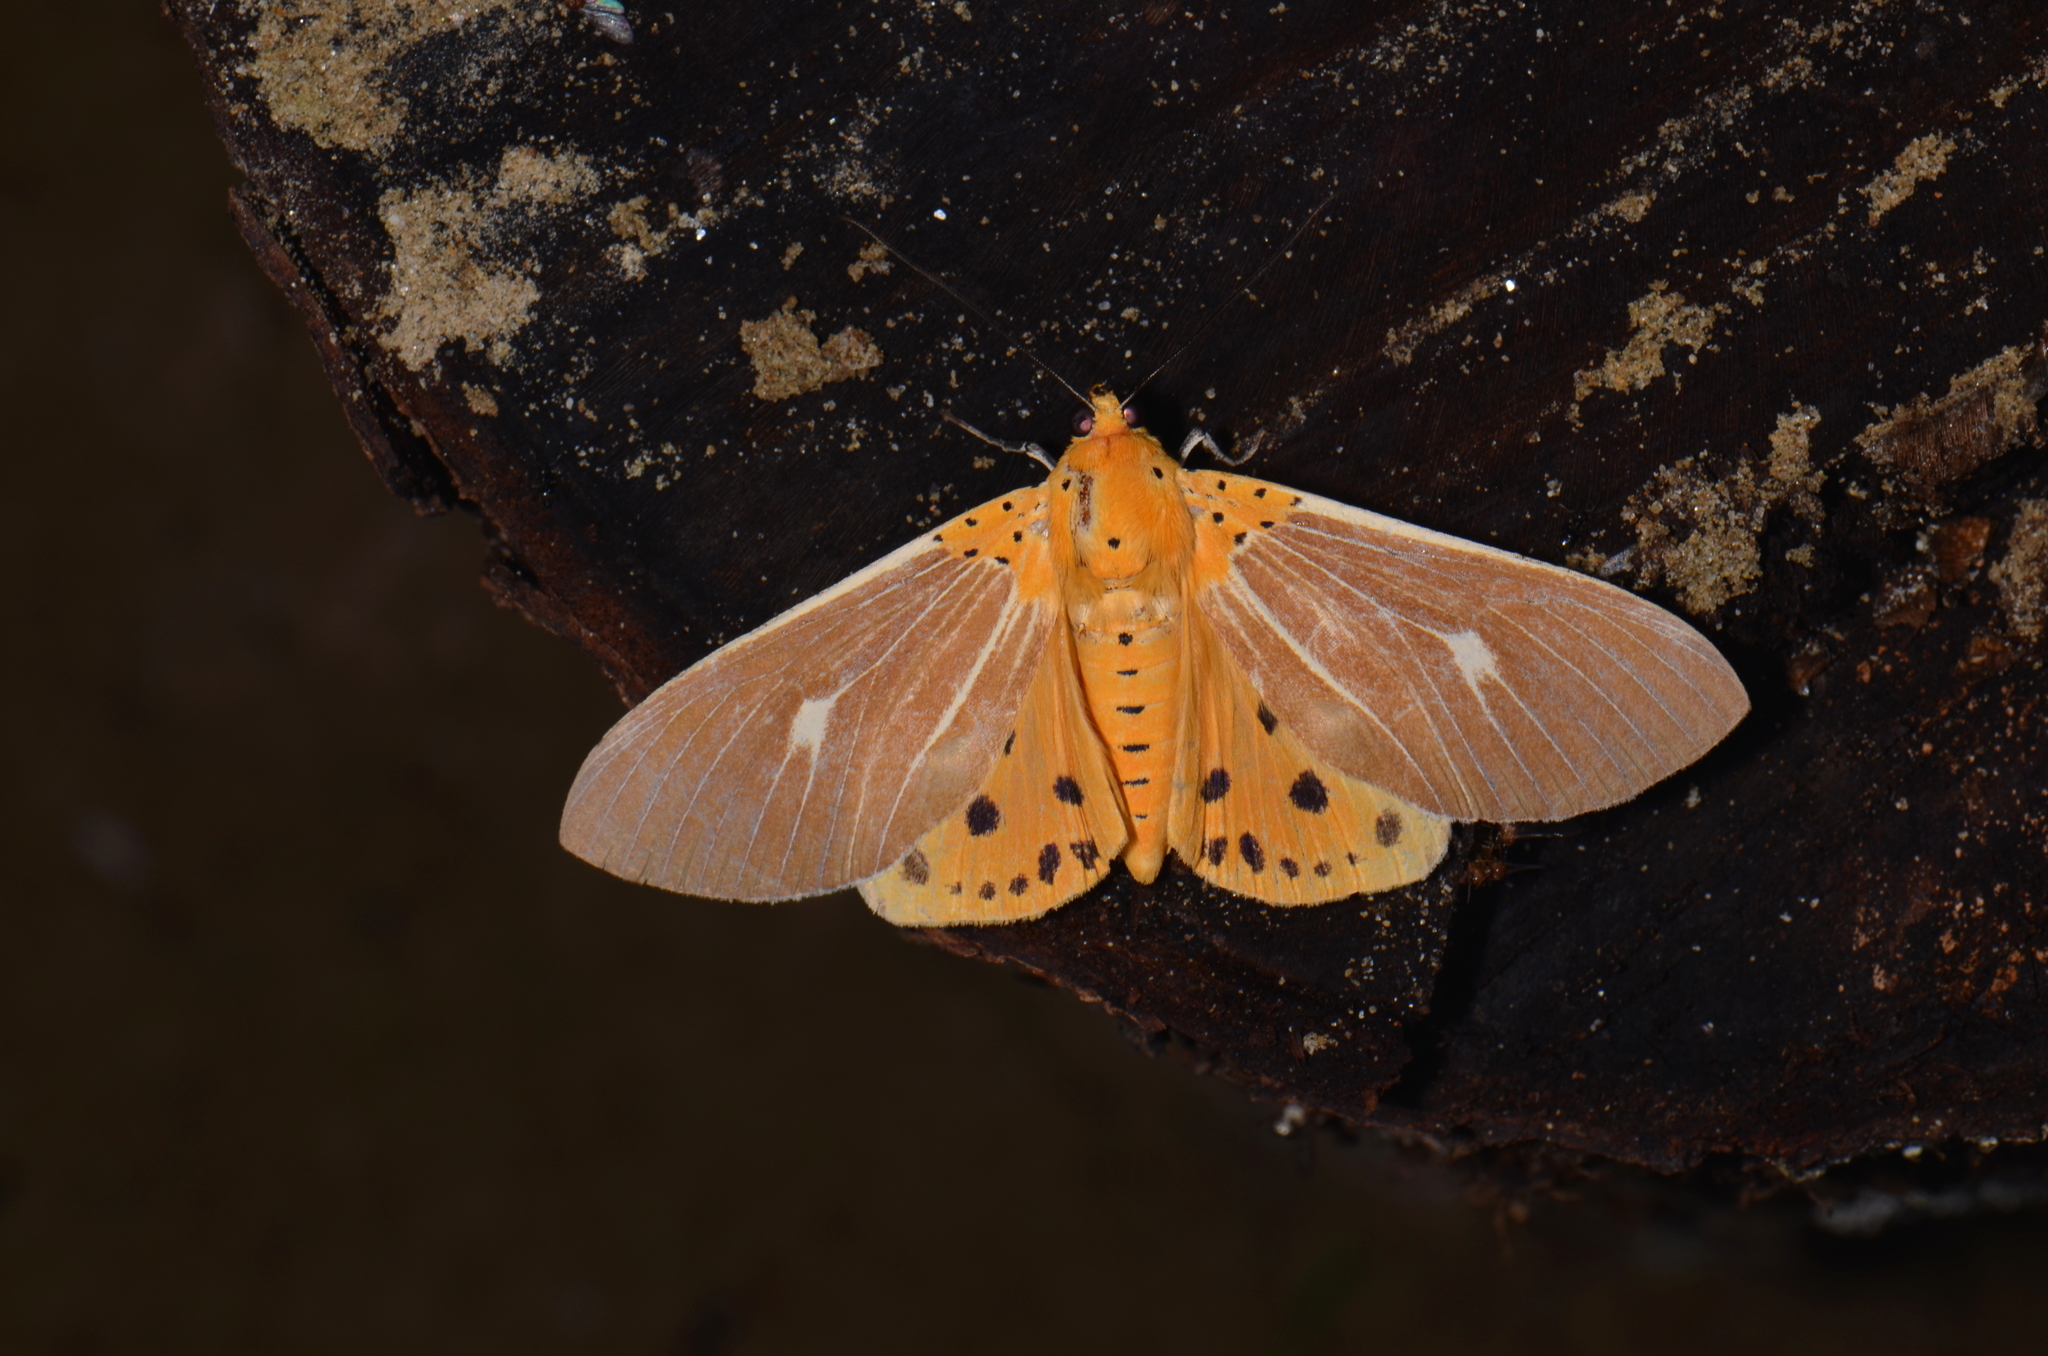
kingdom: Animalia
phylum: Arthropoda
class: Insecta
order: Lepidoptera
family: Erebidae
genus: Asota
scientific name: Asota caricae
